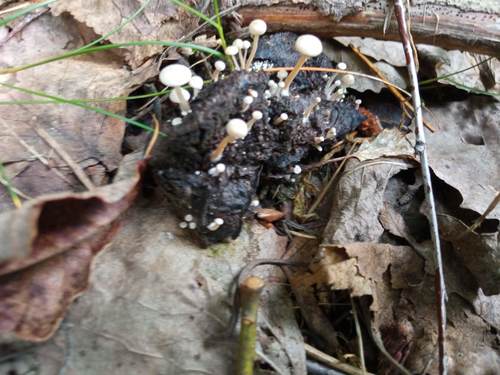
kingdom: Fungi
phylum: Basidiomycota
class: Agaricomycetes
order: Agaricales
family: Tricholomataceae
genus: Collybia
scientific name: Collybia
